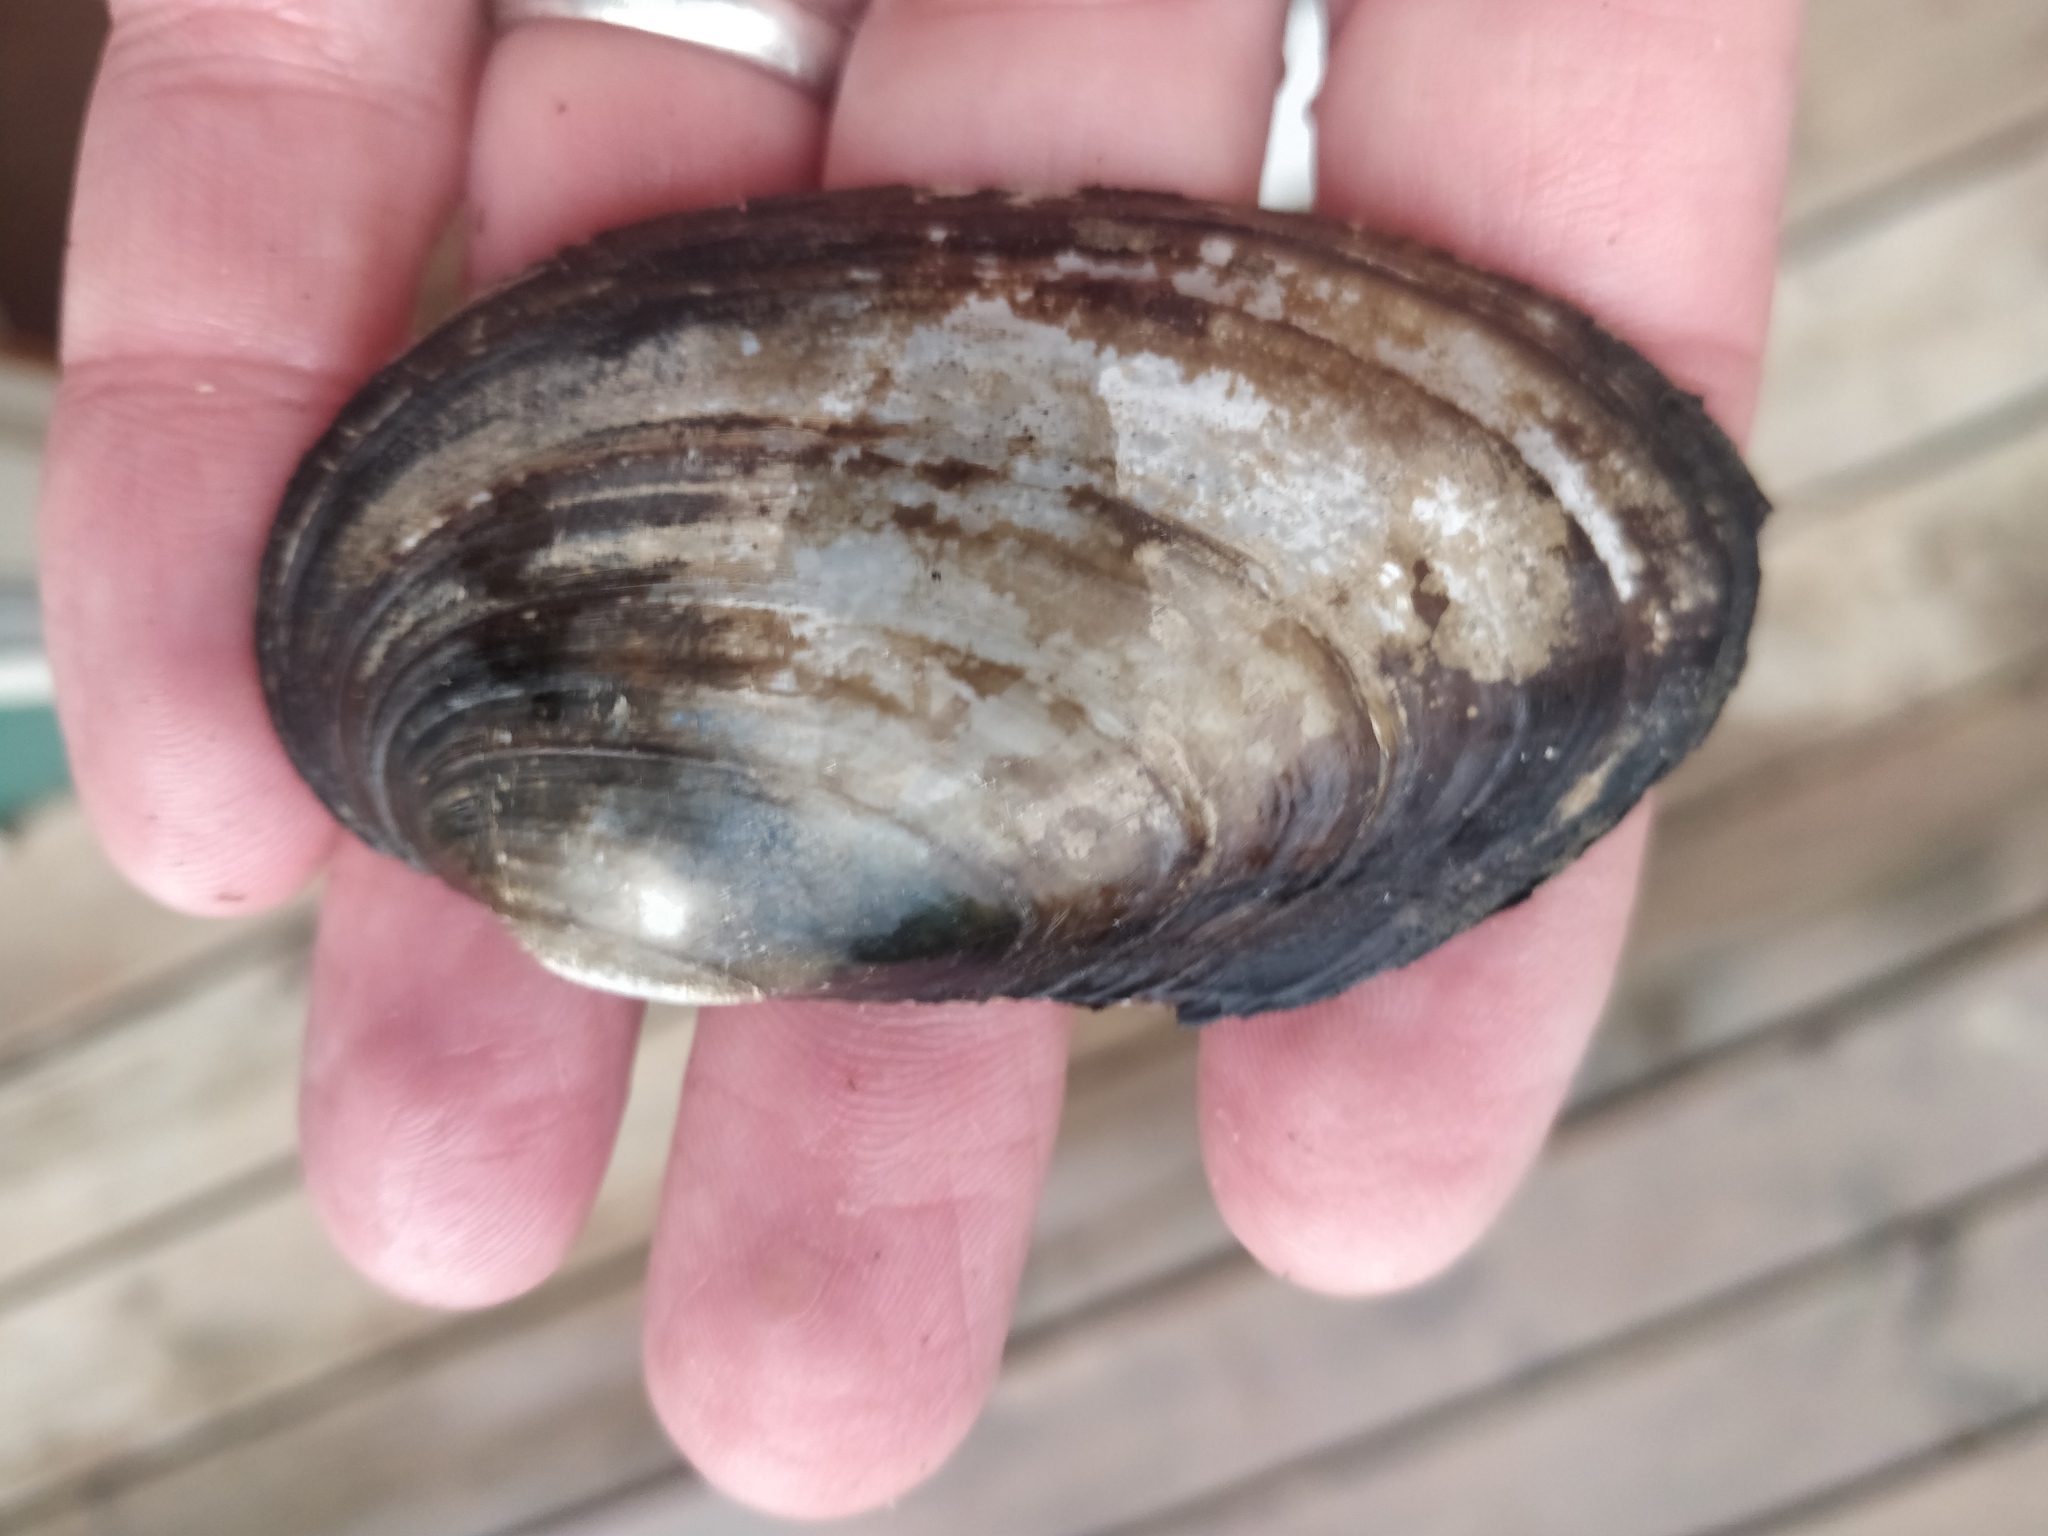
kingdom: Animalia
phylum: Mollusca
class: Bivalvia
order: Unionida
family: Unionidae
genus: Lampsilis
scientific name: Lampsilis siliquoidea
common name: Fatmucket
